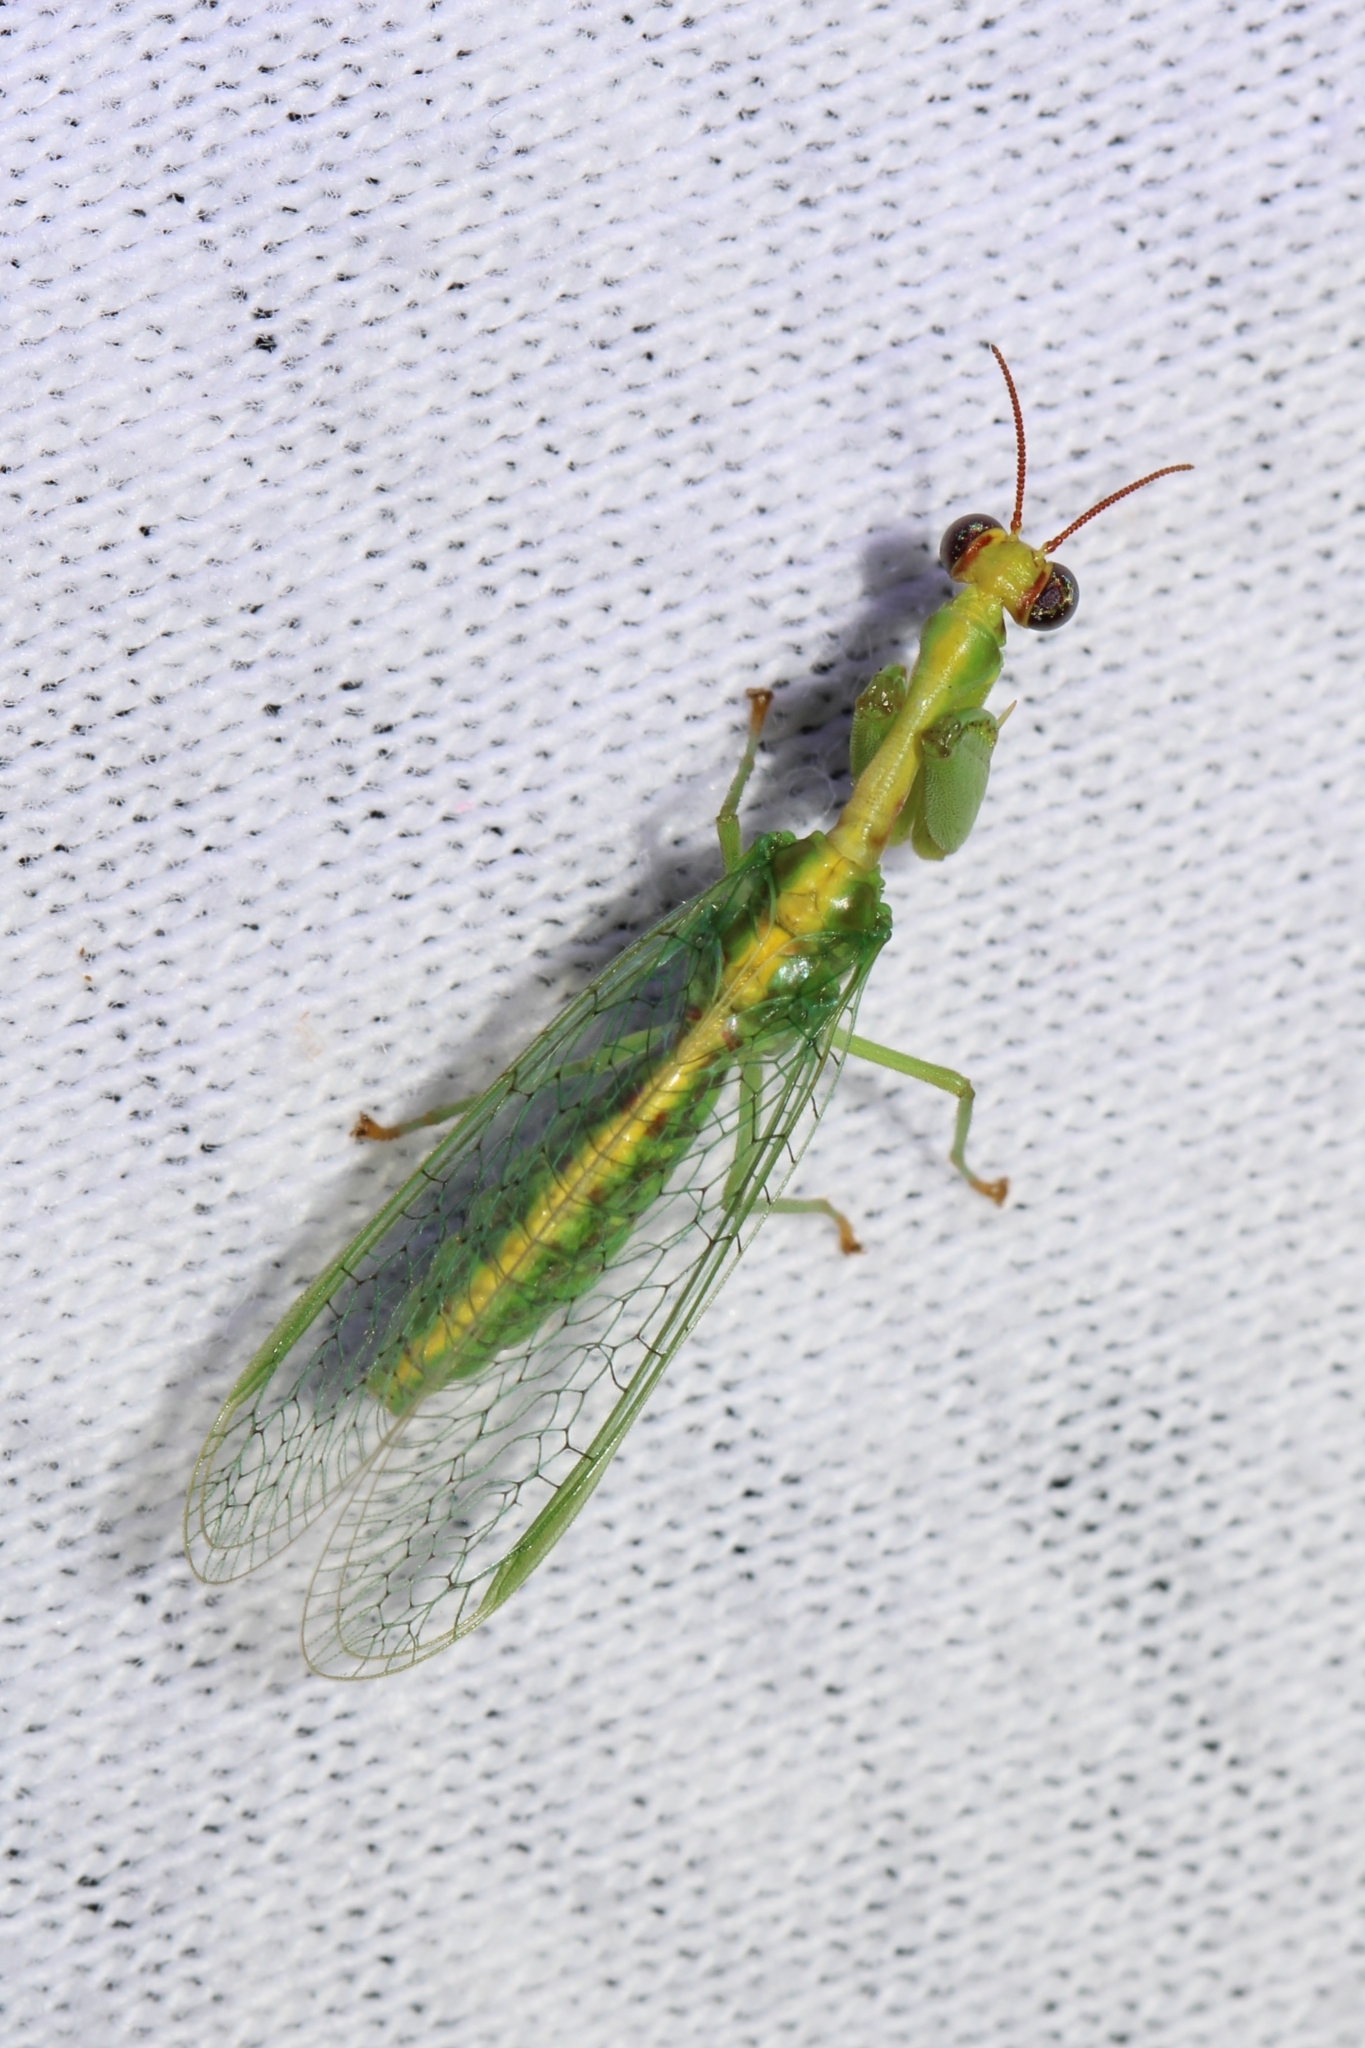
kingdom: Animalia
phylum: Arthropoda
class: Insecta
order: Neuroptera
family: Mantispidae
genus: Zeugomantispa
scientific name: Zeugomantispa minuta
